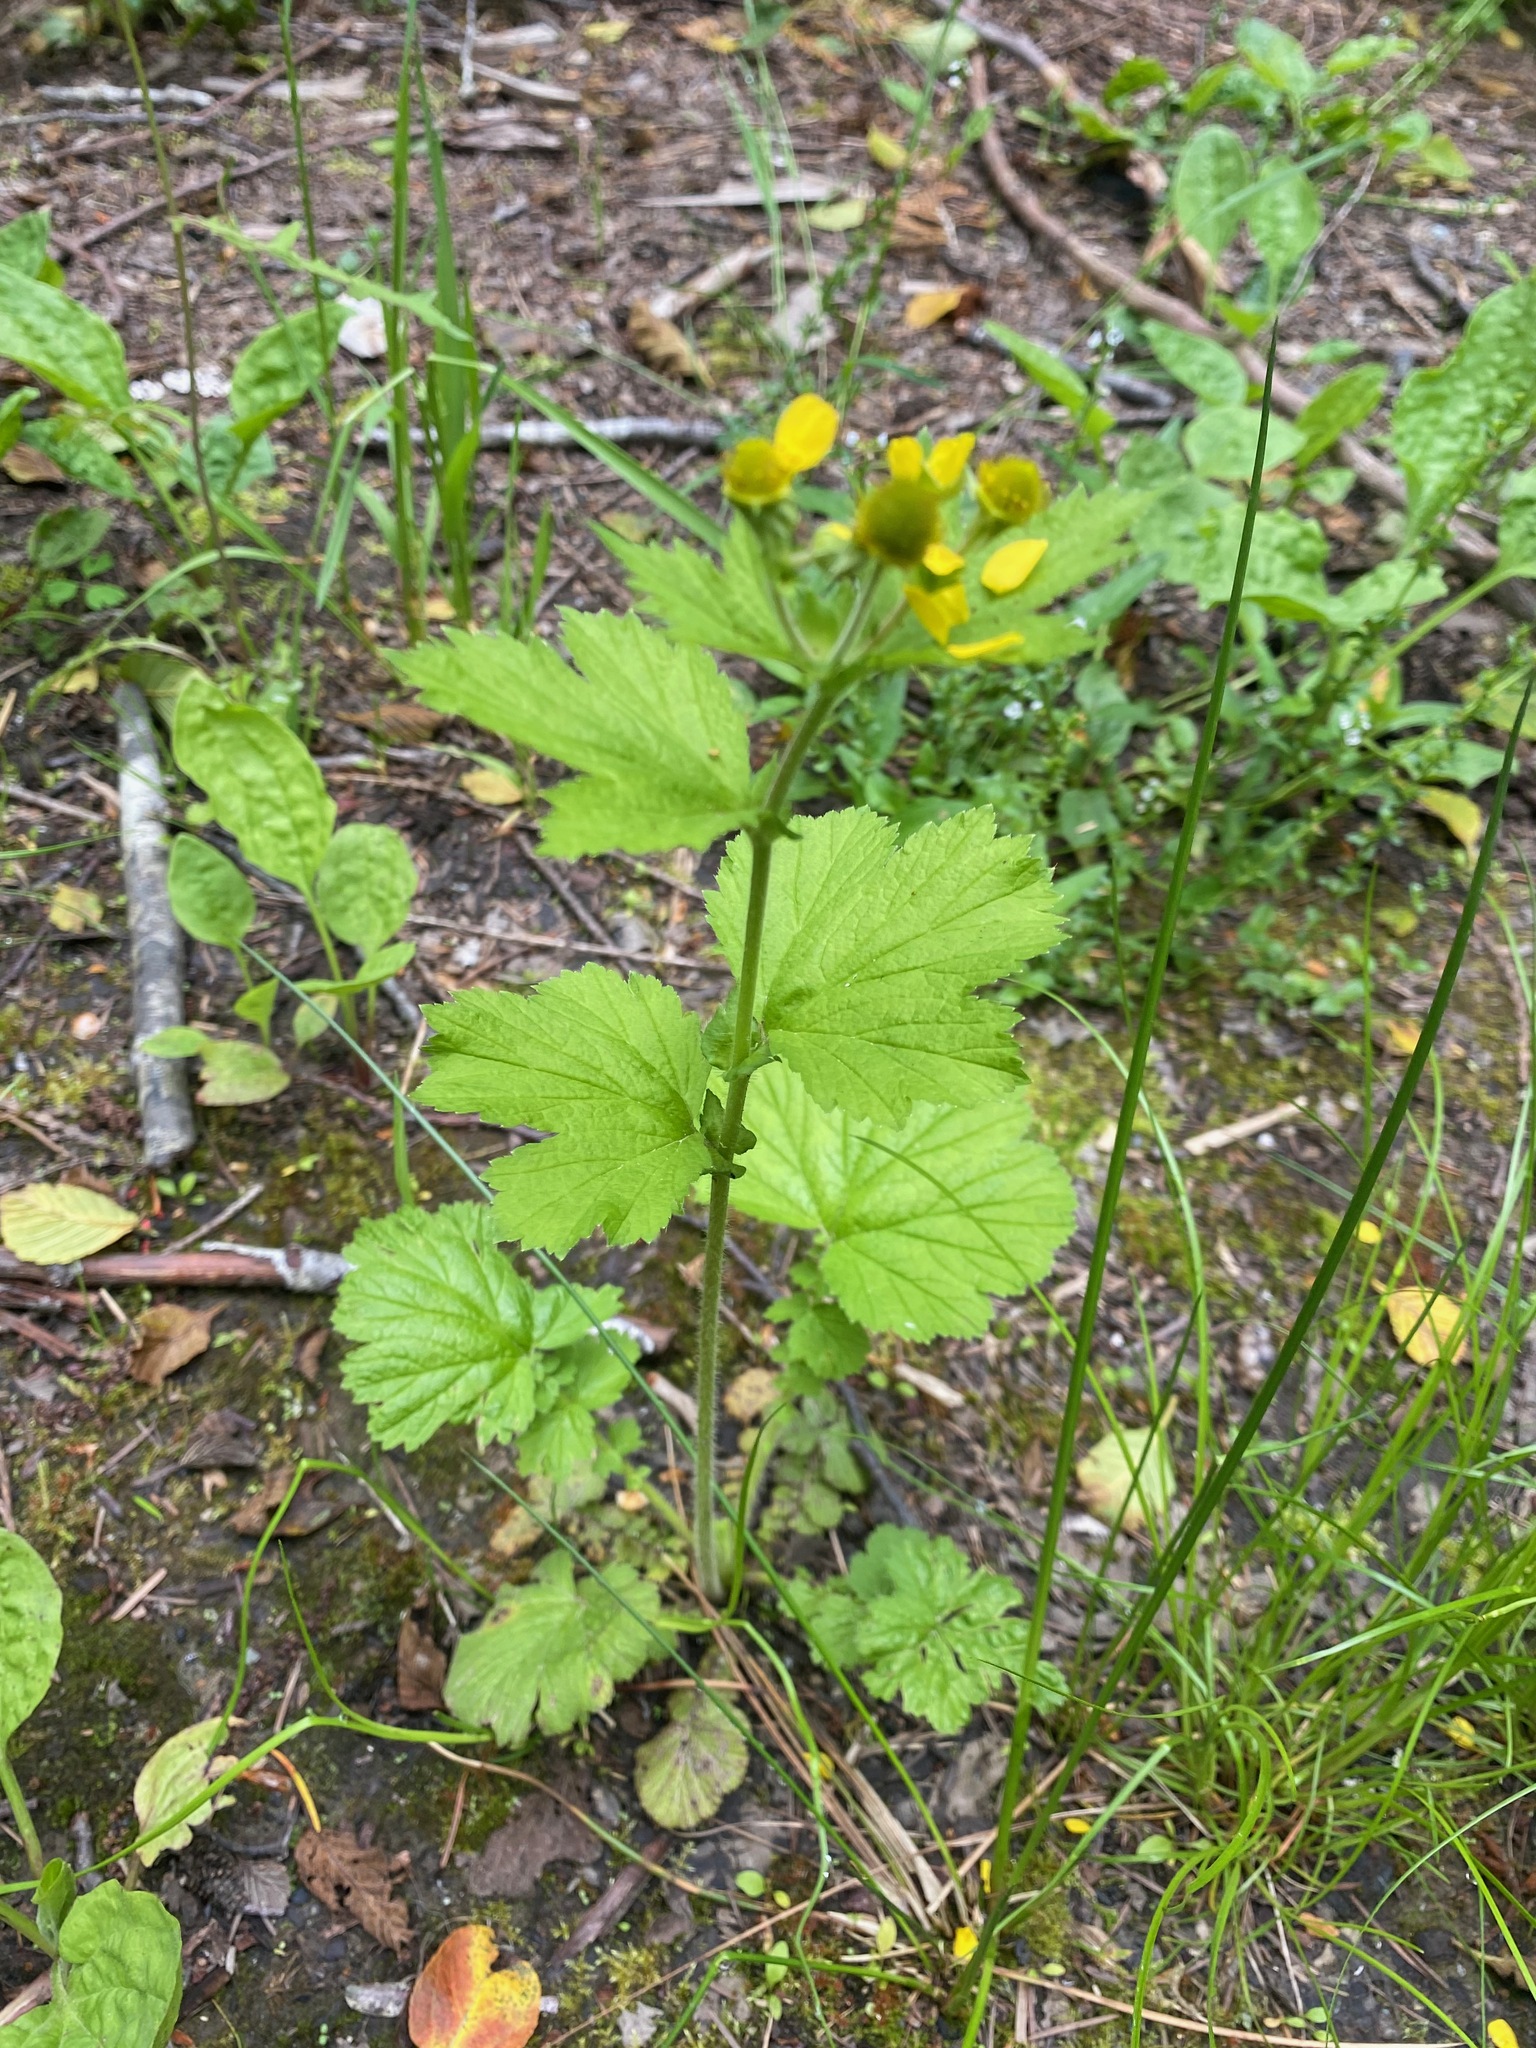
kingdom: Plantae
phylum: Tracheophyta
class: Magnoliopsida
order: Rosales
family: Rosaceae
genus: Geum
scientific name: Geum macrophyllum
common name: Large-leaved avens
